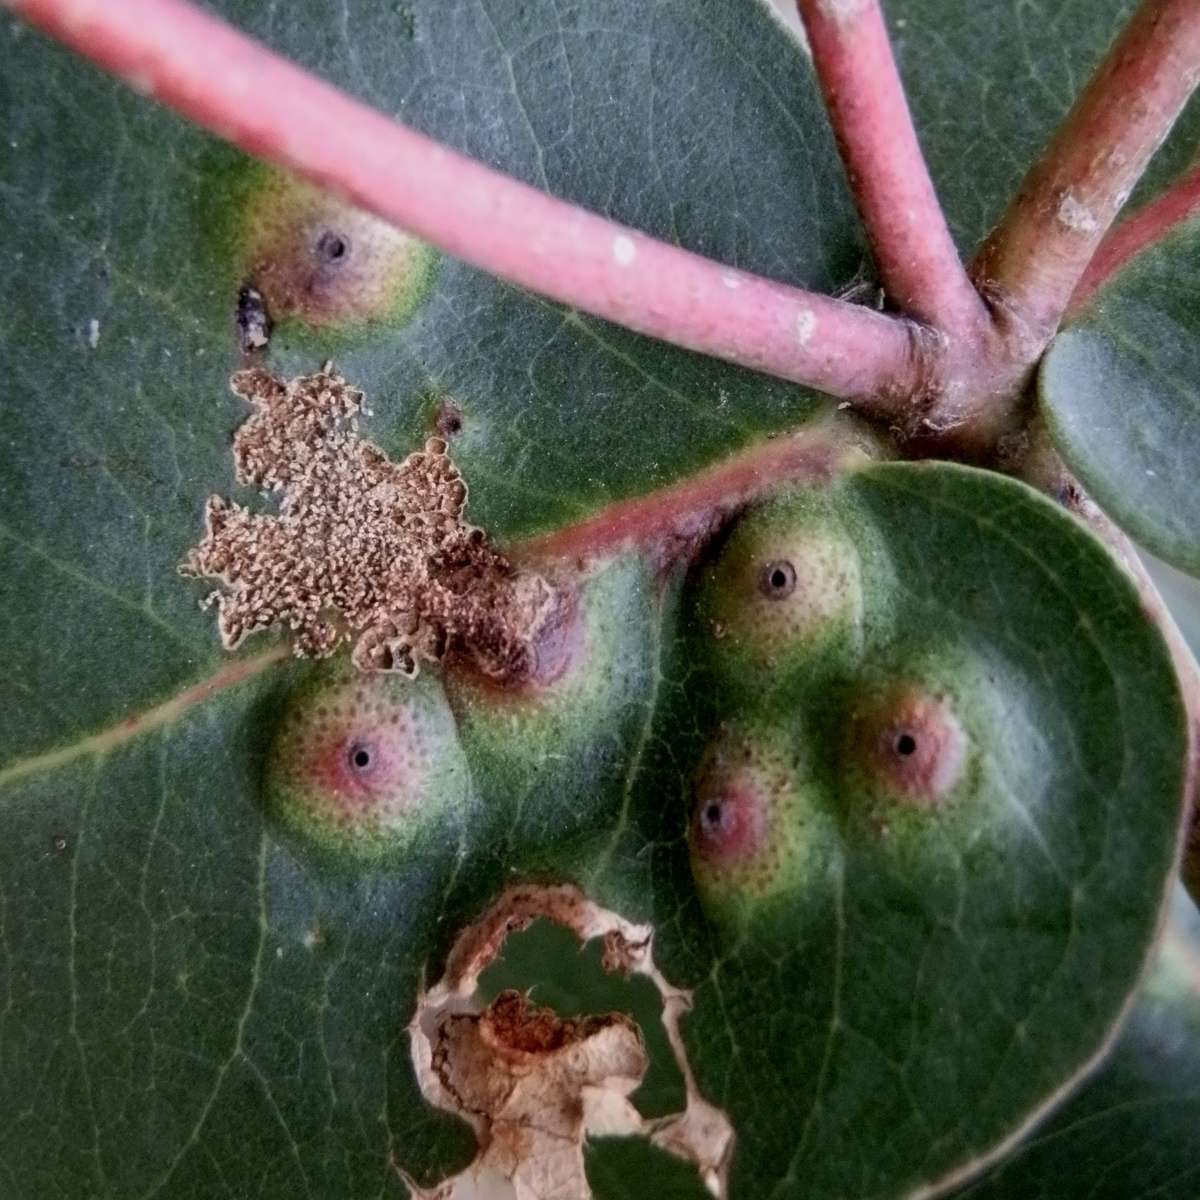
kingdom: Animalia
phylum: Arthropoda
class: Insecta
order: Hemiptera
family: Eriococcidae
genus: Opisthoscelis
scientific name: Opisthoscelis beardsleyi
